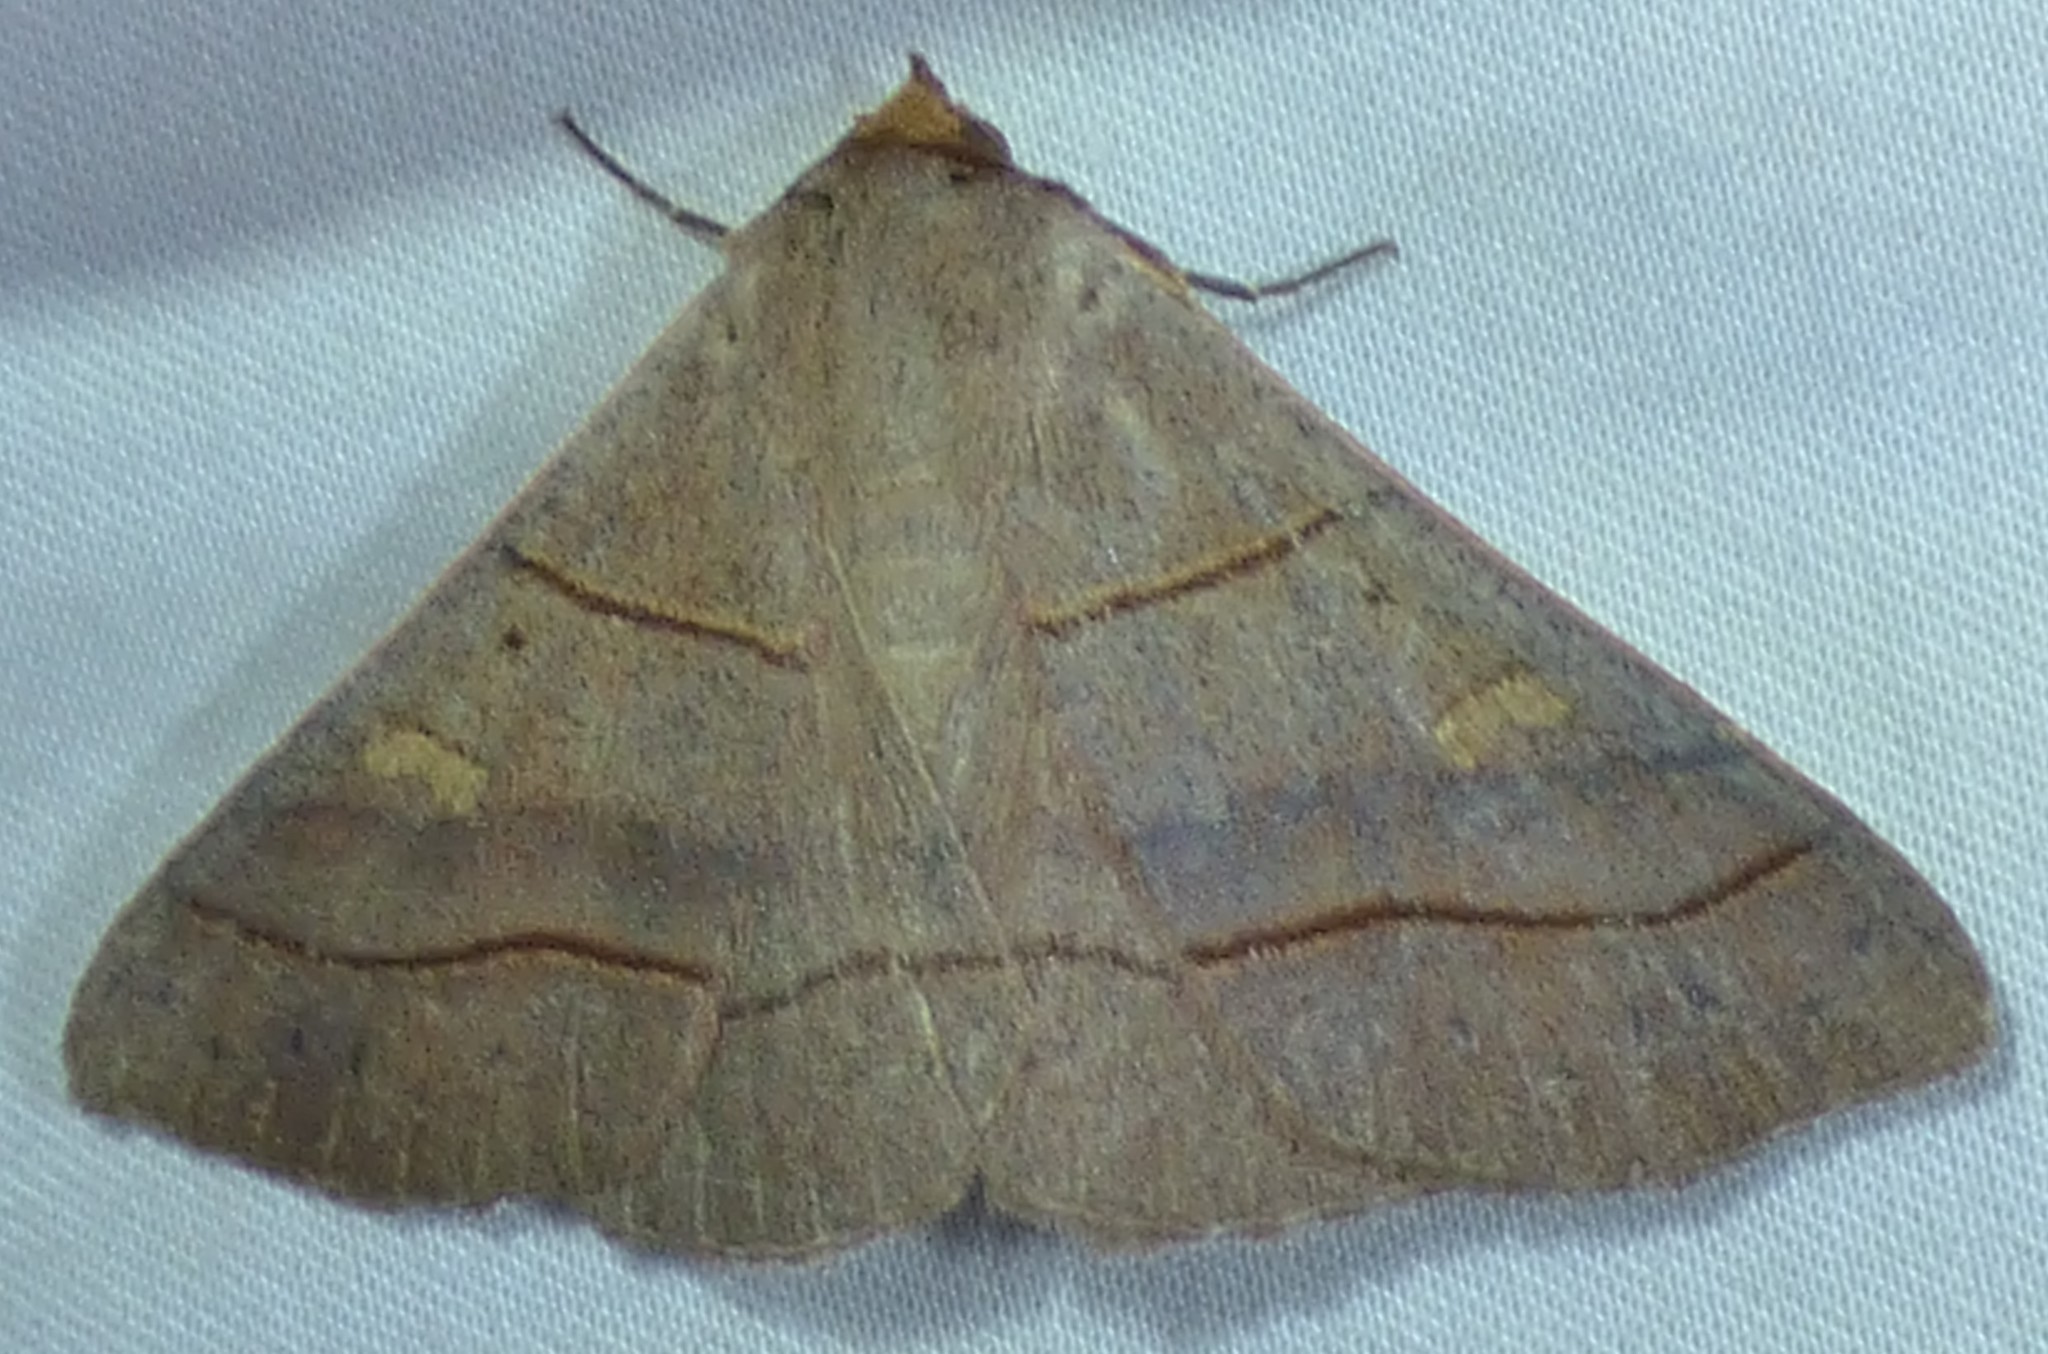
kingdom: Animalia
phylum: Arthropoda
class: Insecta
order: Lepidoptera
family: Erebidae
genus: Panopoda
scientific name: Panopoda rufimargo
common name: Red-lined panopoda moth
